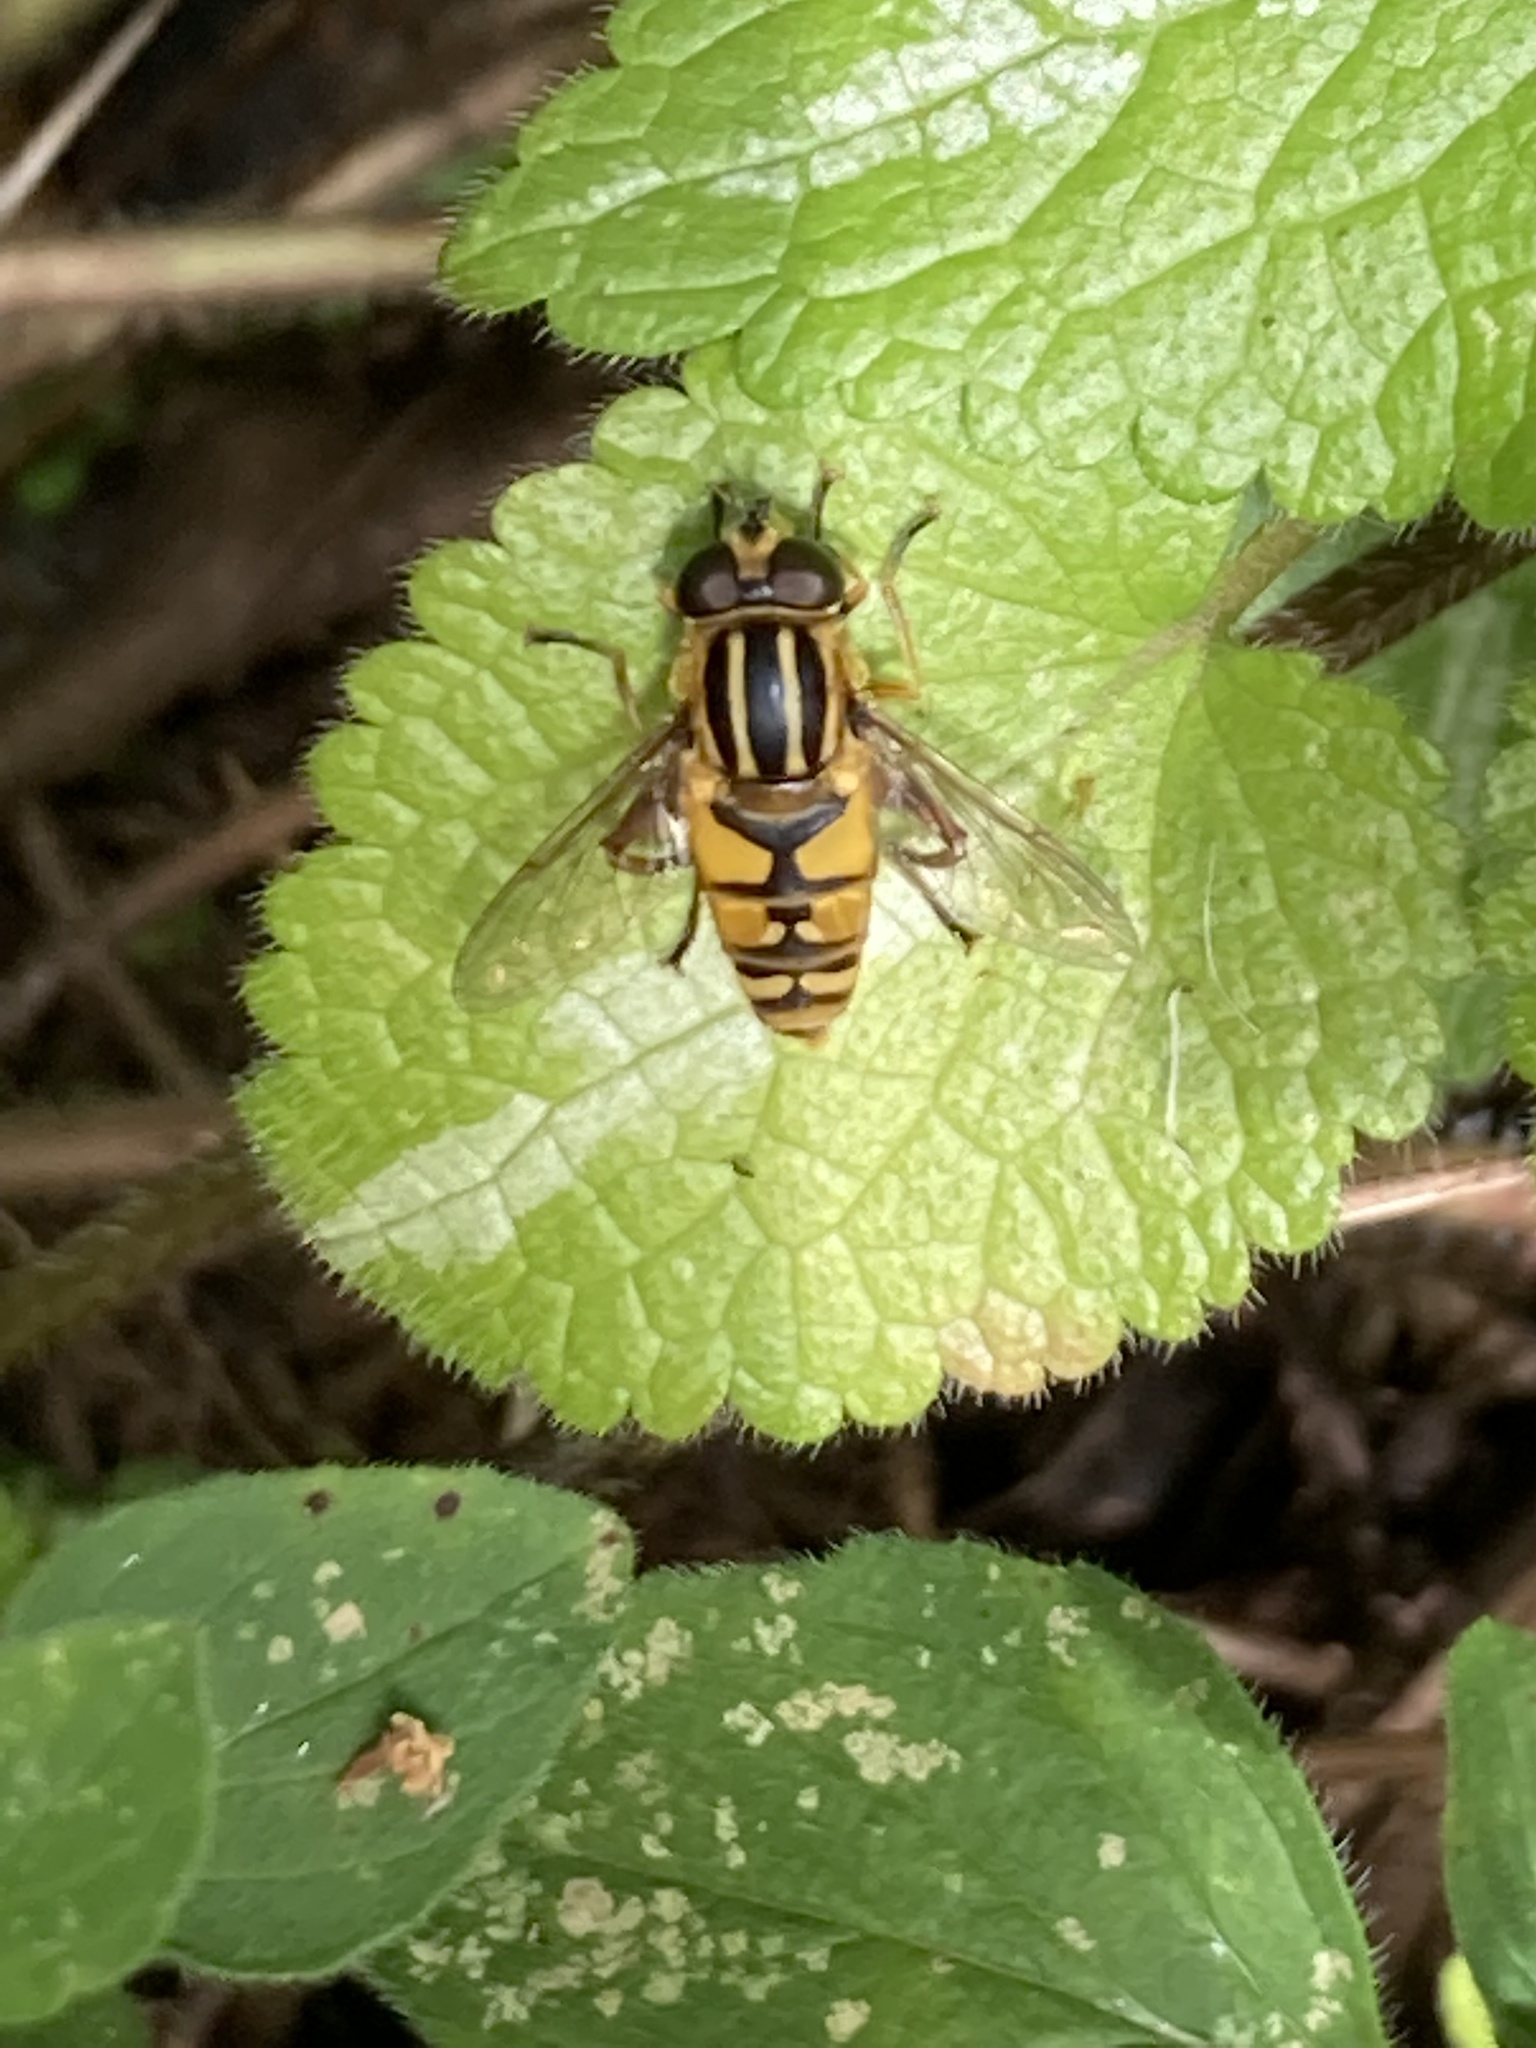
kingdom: Animalia
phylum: Arthropoda
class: Insecta
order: Diptera
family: Syrphidae
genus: Helophilus
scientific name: Helophilus pendulus
